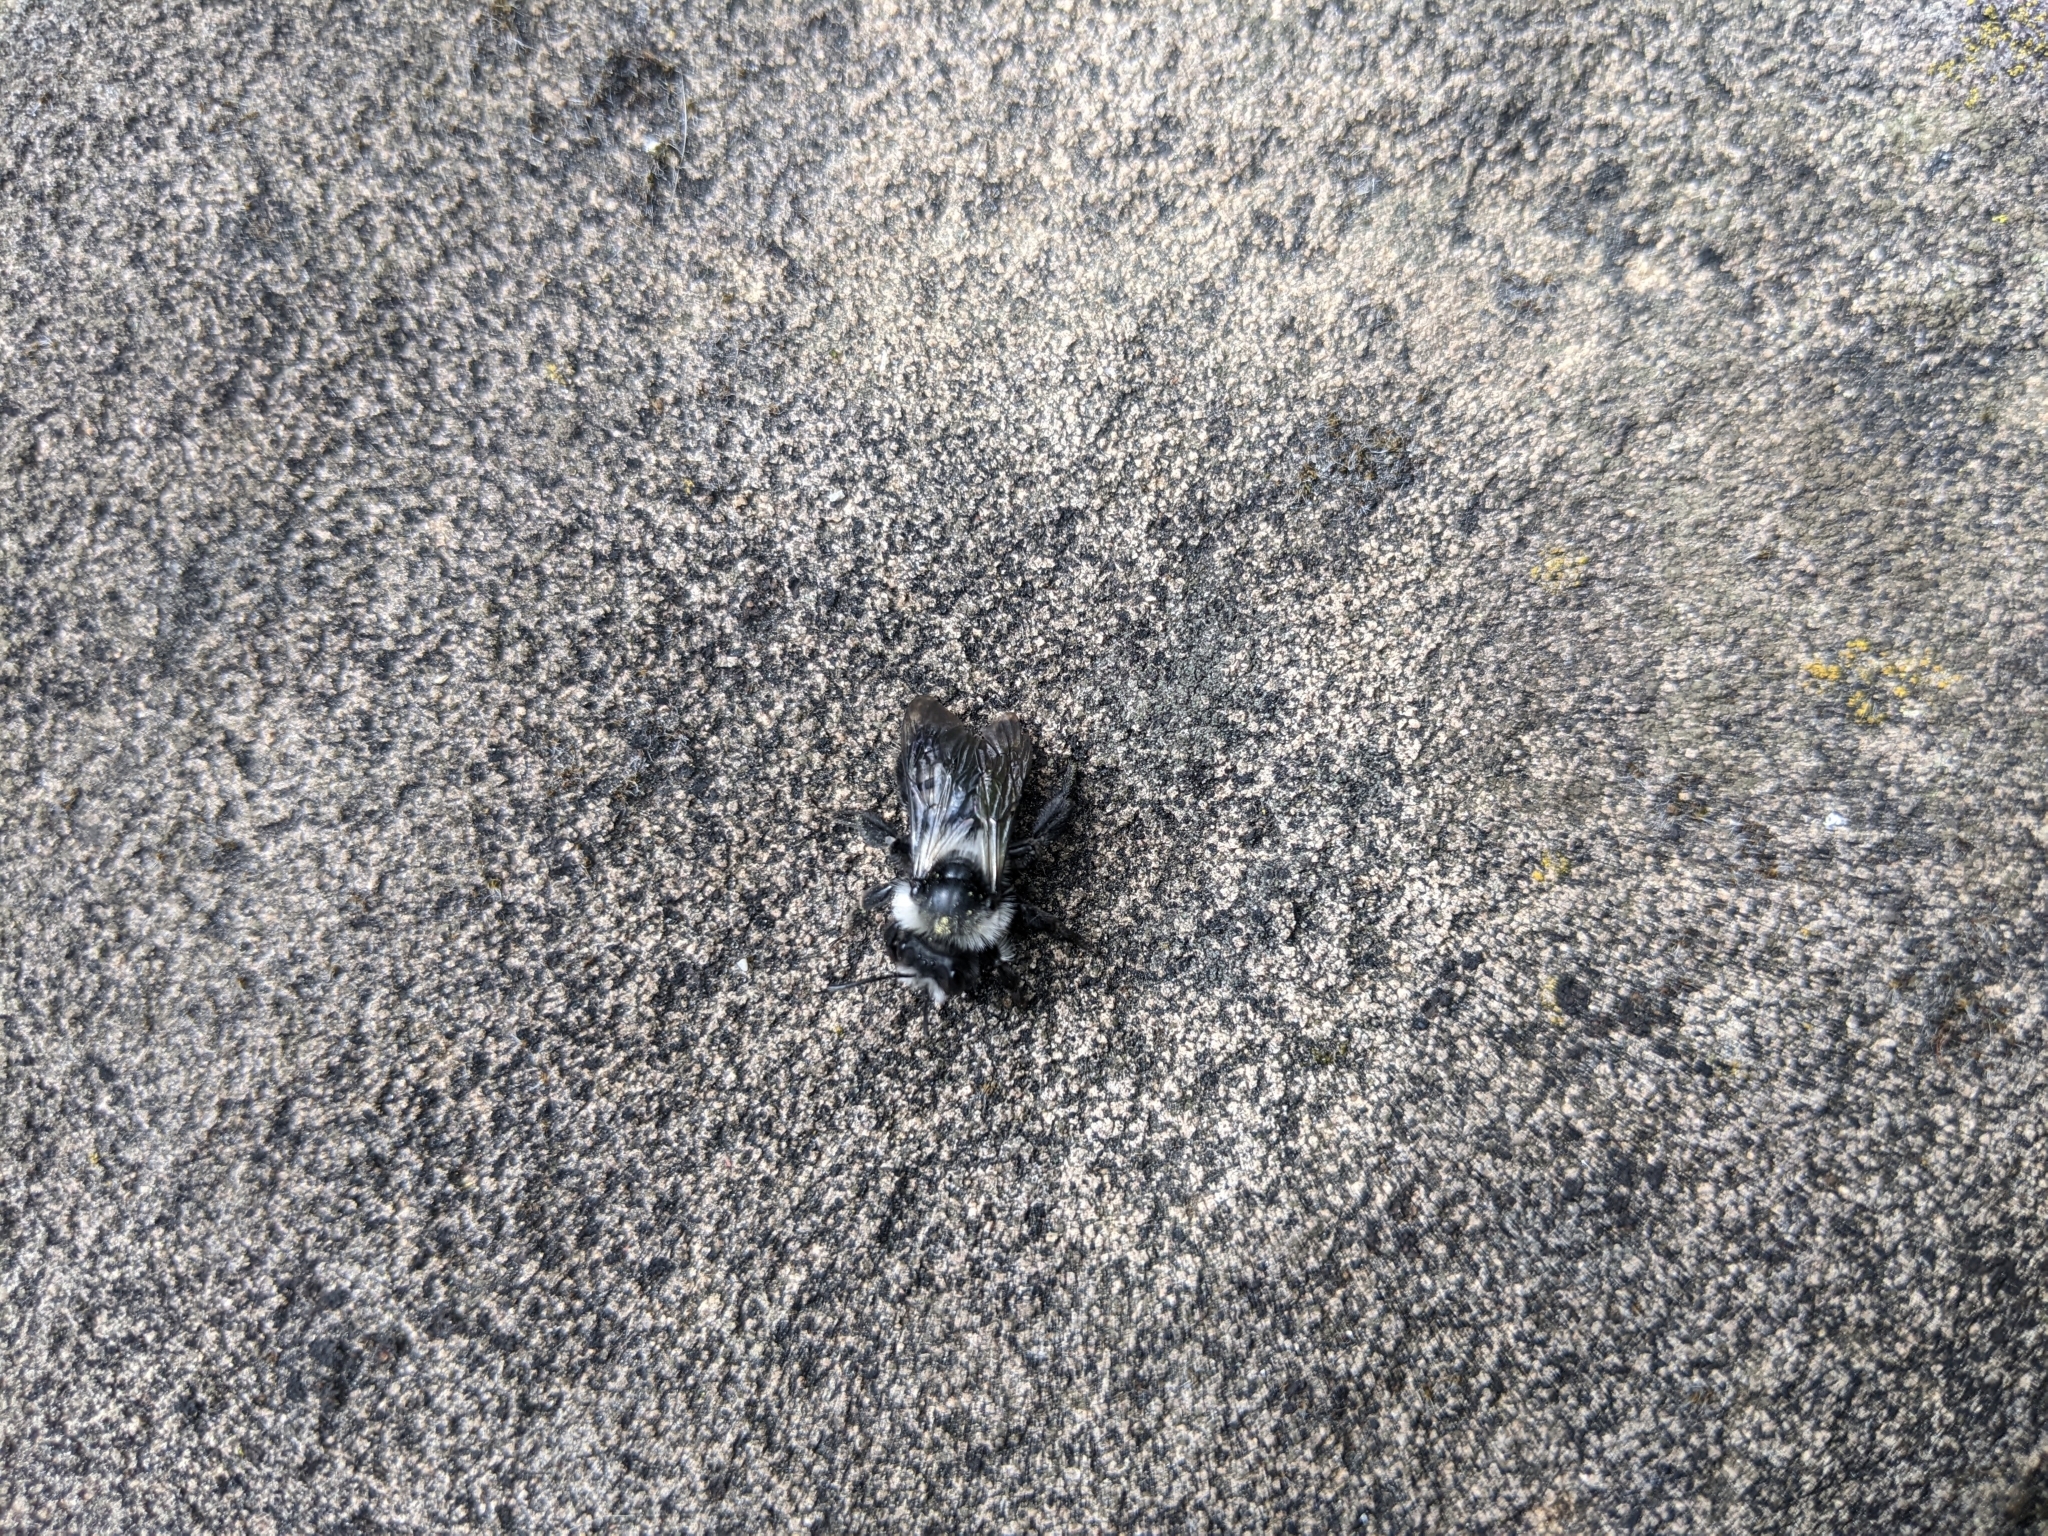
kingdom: Animalia
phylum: Arthropoda
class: Insecta
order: Hymenoptera
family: Andrenidae
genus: Andrena
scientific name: Andrena cineraria
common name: Ashy mining bee
